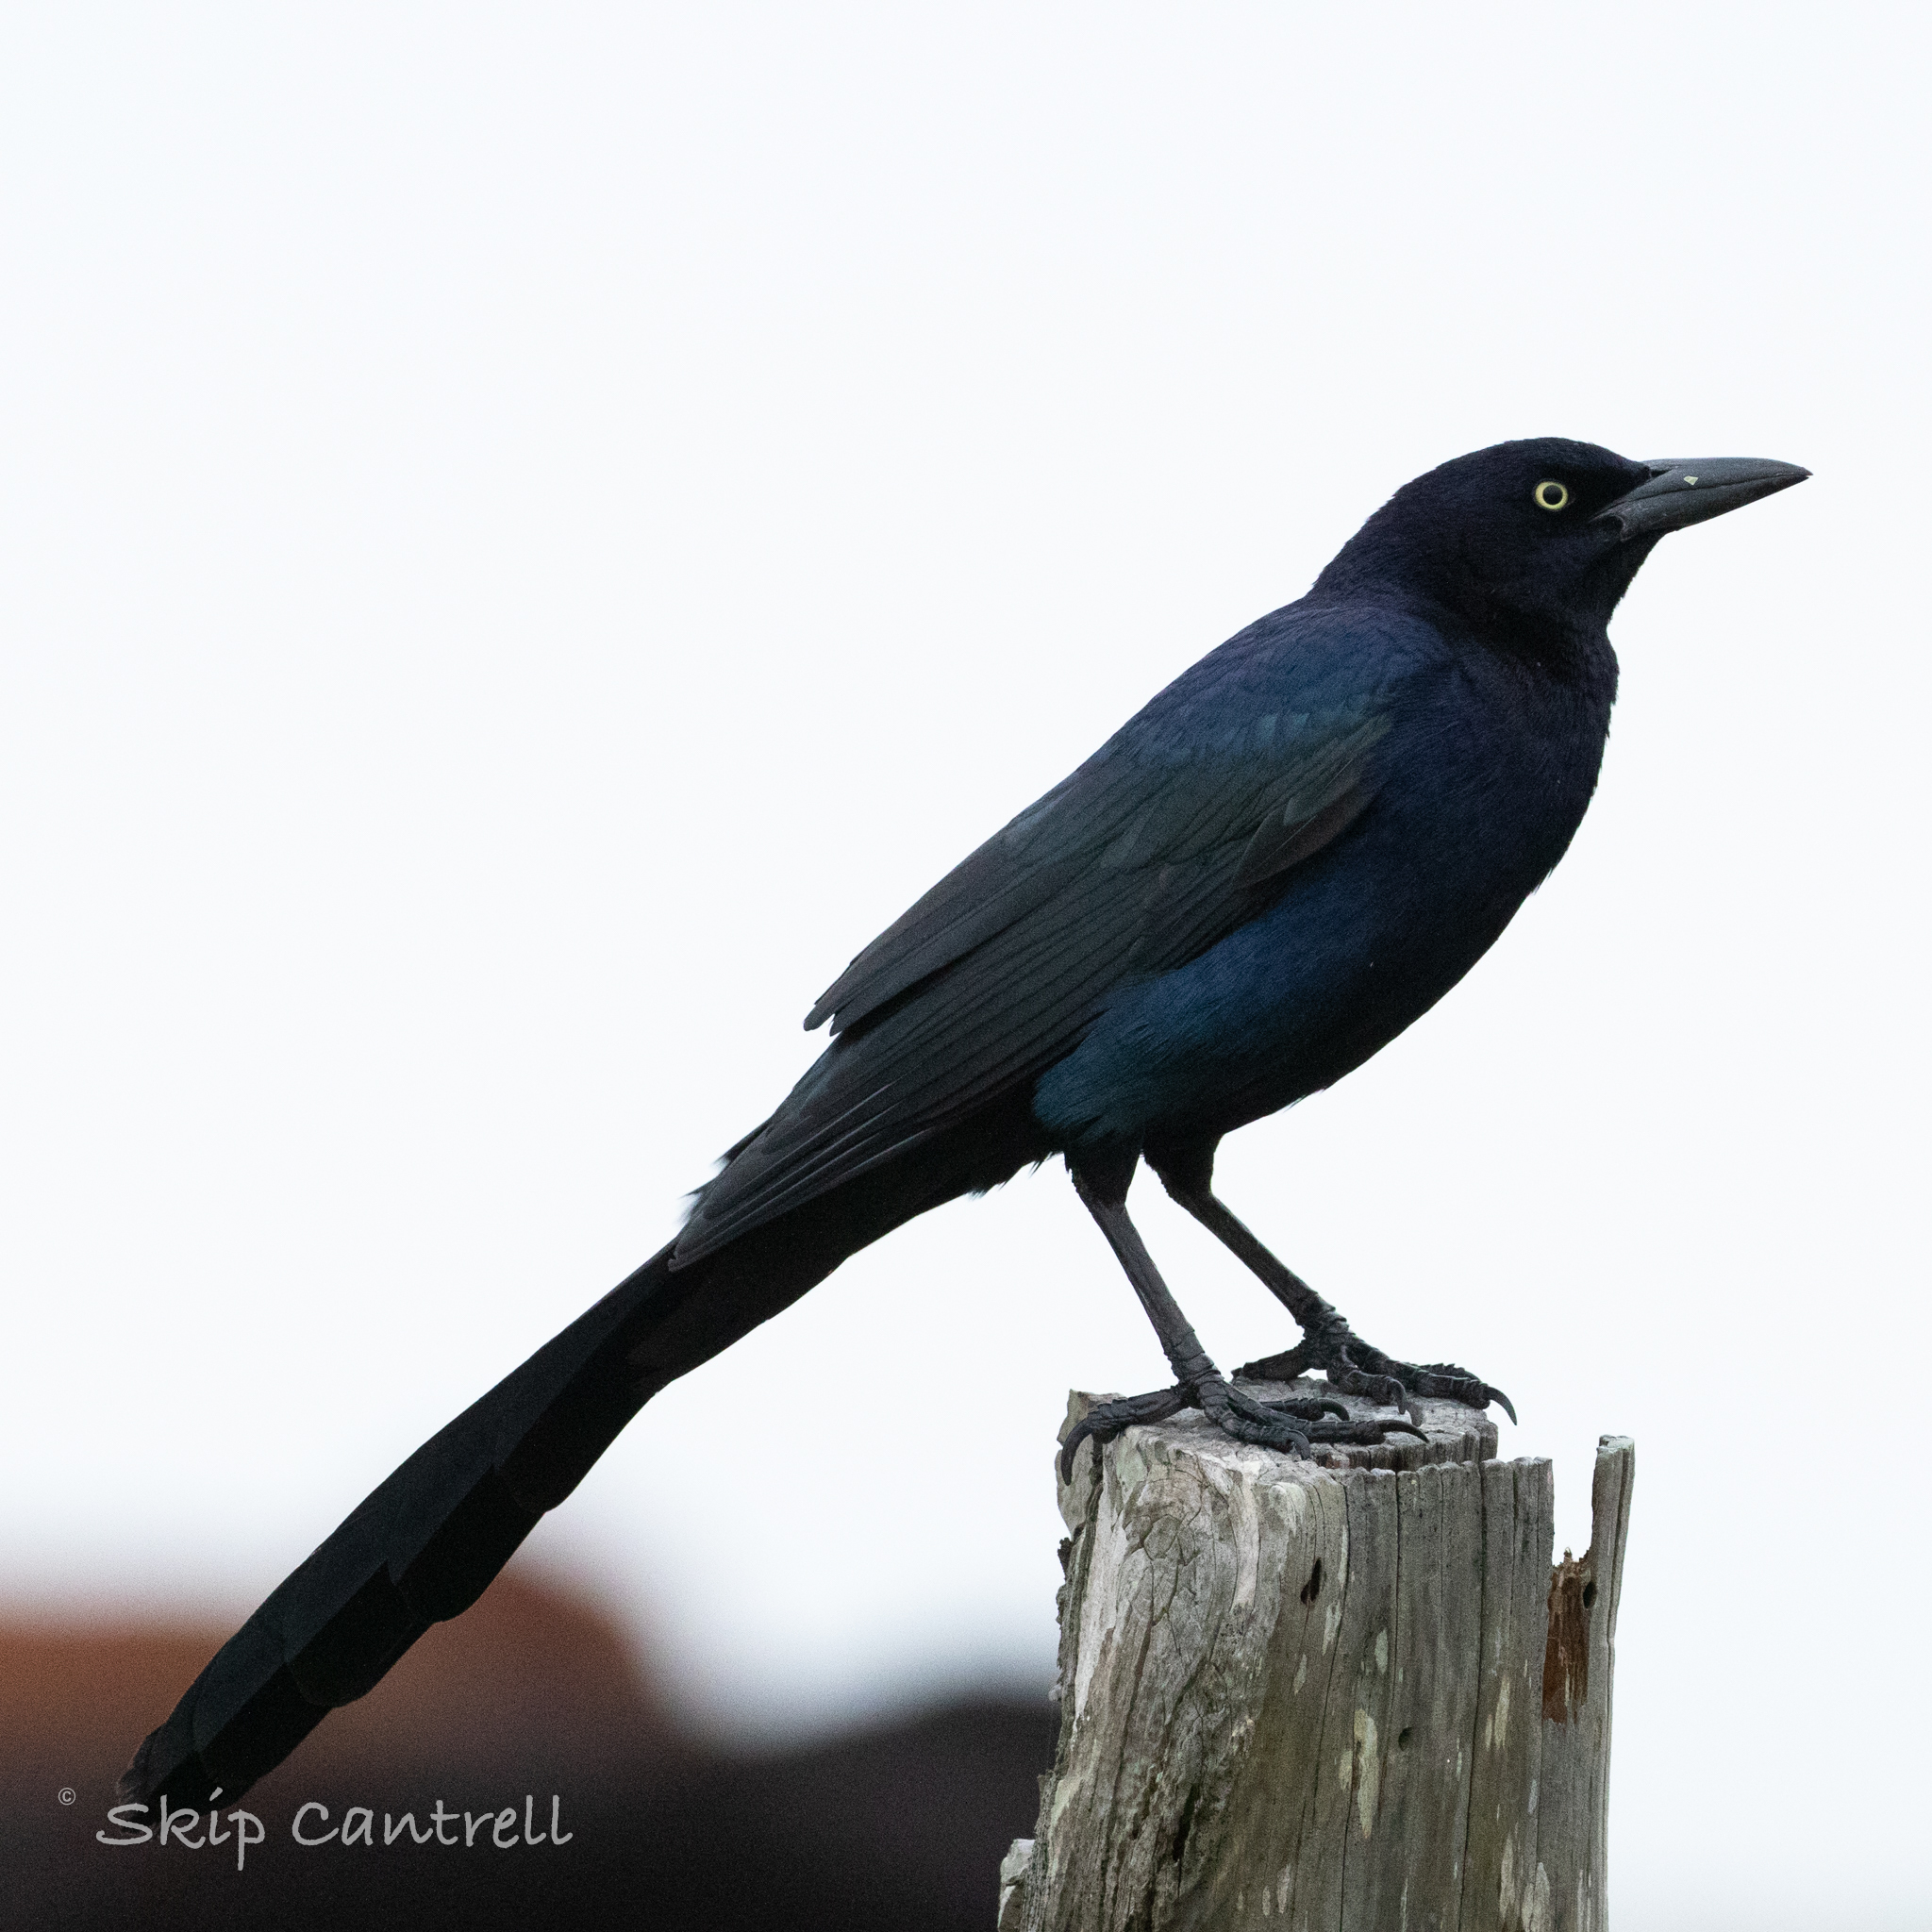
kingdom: Animalia
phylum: Chordata
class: Aves
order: Passeriformes
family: Icteridae
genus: Quiscalus
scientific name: Quiscalus mexicanus
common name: Great-tailed grackle
